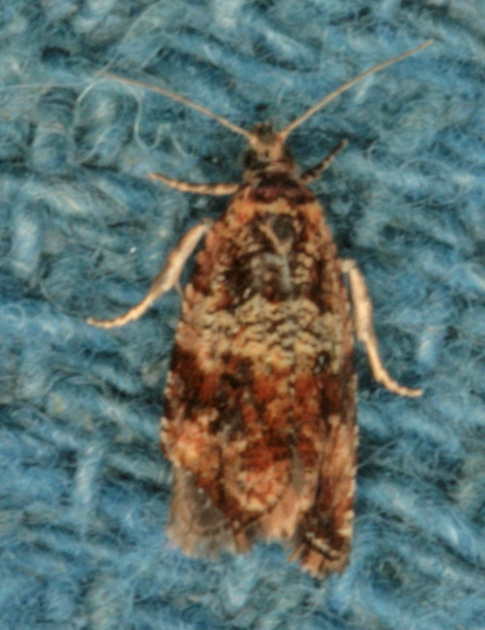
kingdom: Animalia
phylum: Arthropoda
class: Insecta
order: Lepidoptera
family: Tortricidae
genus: Celypha
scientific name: Celypha cespitana
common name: Thyme marble
